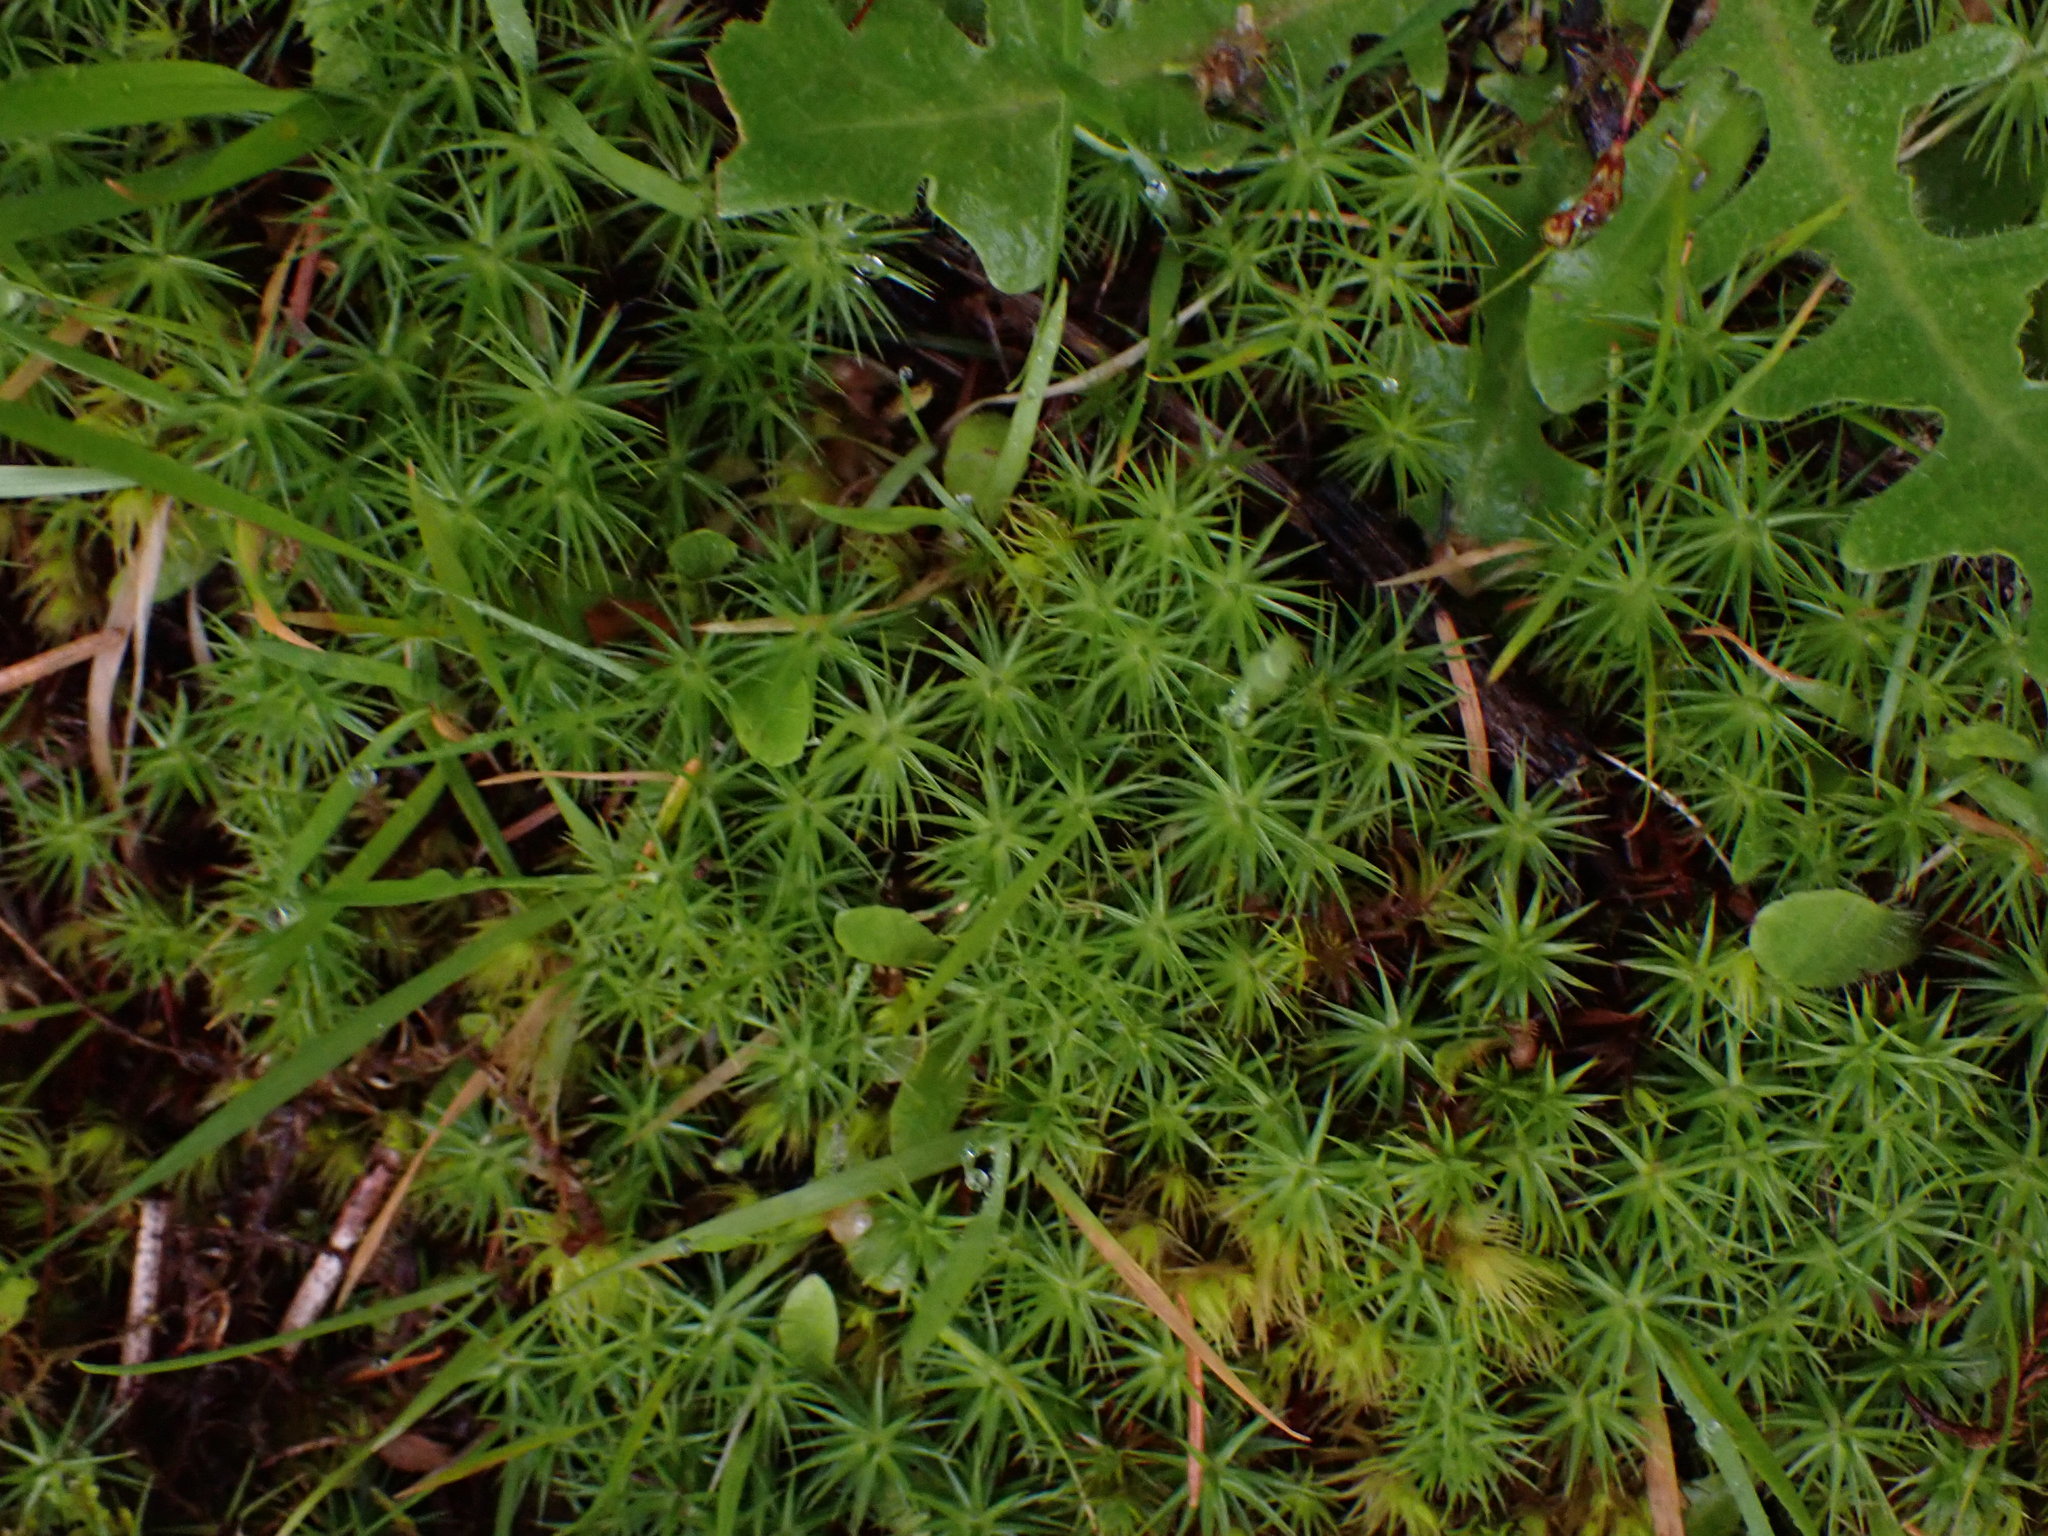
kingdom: Plantae
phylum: Bryophyta
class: Polytrichopsida
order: Polytrichales
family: Polytrichaceae
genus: Polytrichum
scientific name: Polytrichum commune
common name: Common haircap
